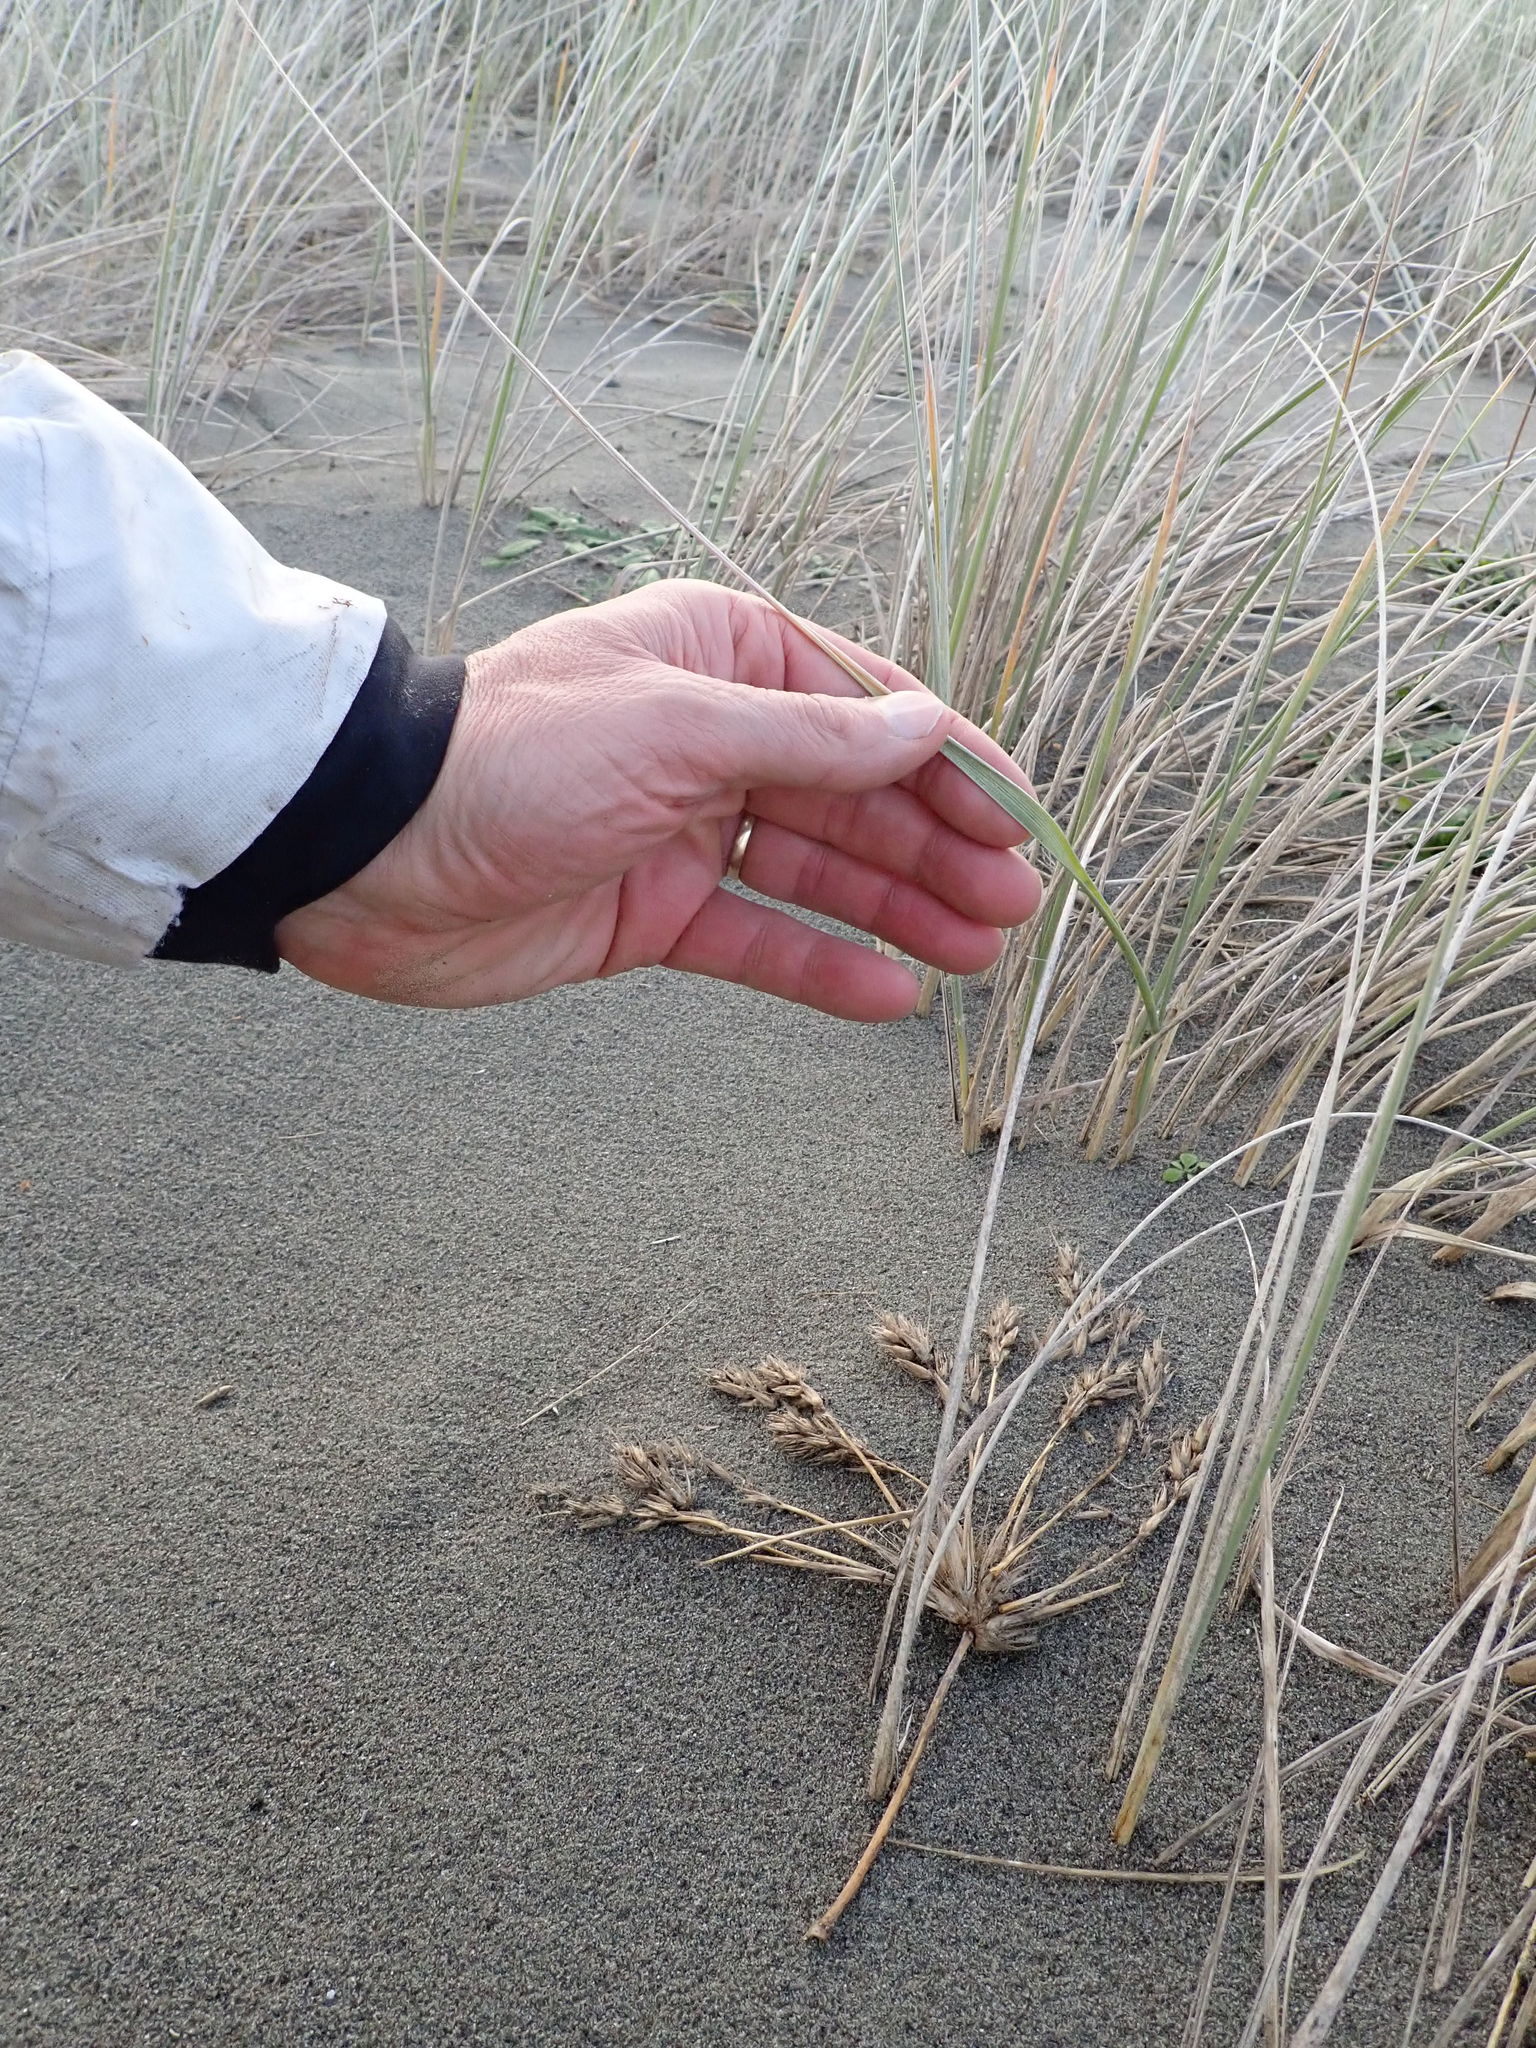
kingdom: Plantae
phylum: Tracheophyta
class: Liliopsida
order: Poales
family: Poaceae
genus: Spinifex
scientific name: Spinifex sericeus
